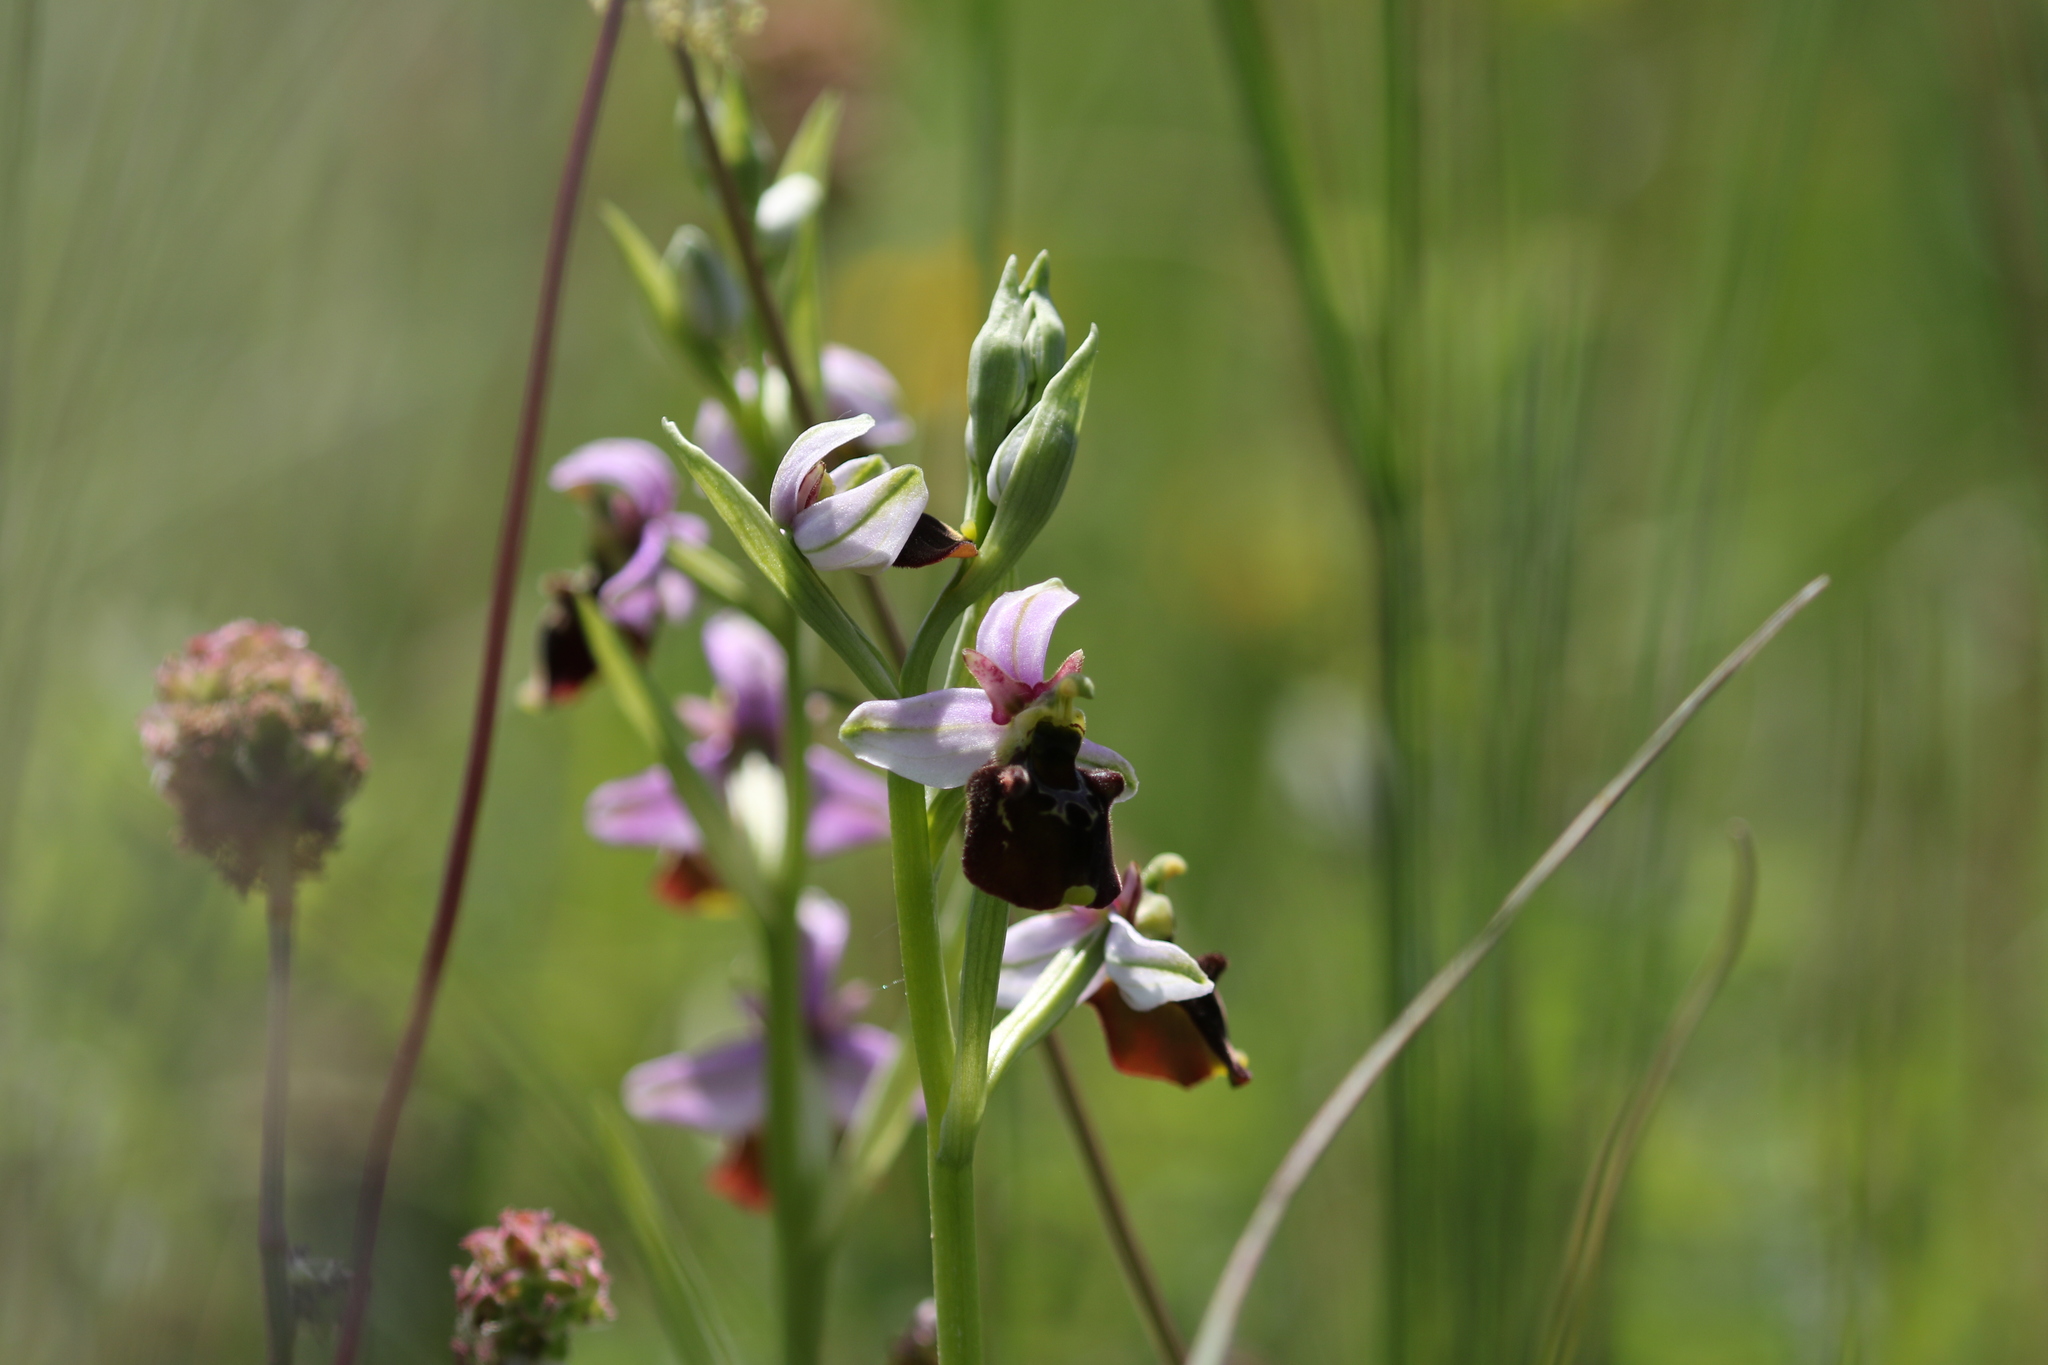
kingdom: Plantae
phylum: Tracheophyta
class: Liliopsida
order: Asparagales
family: Orchidaceae
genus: Ophrys
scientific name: Ophrys holosericea
